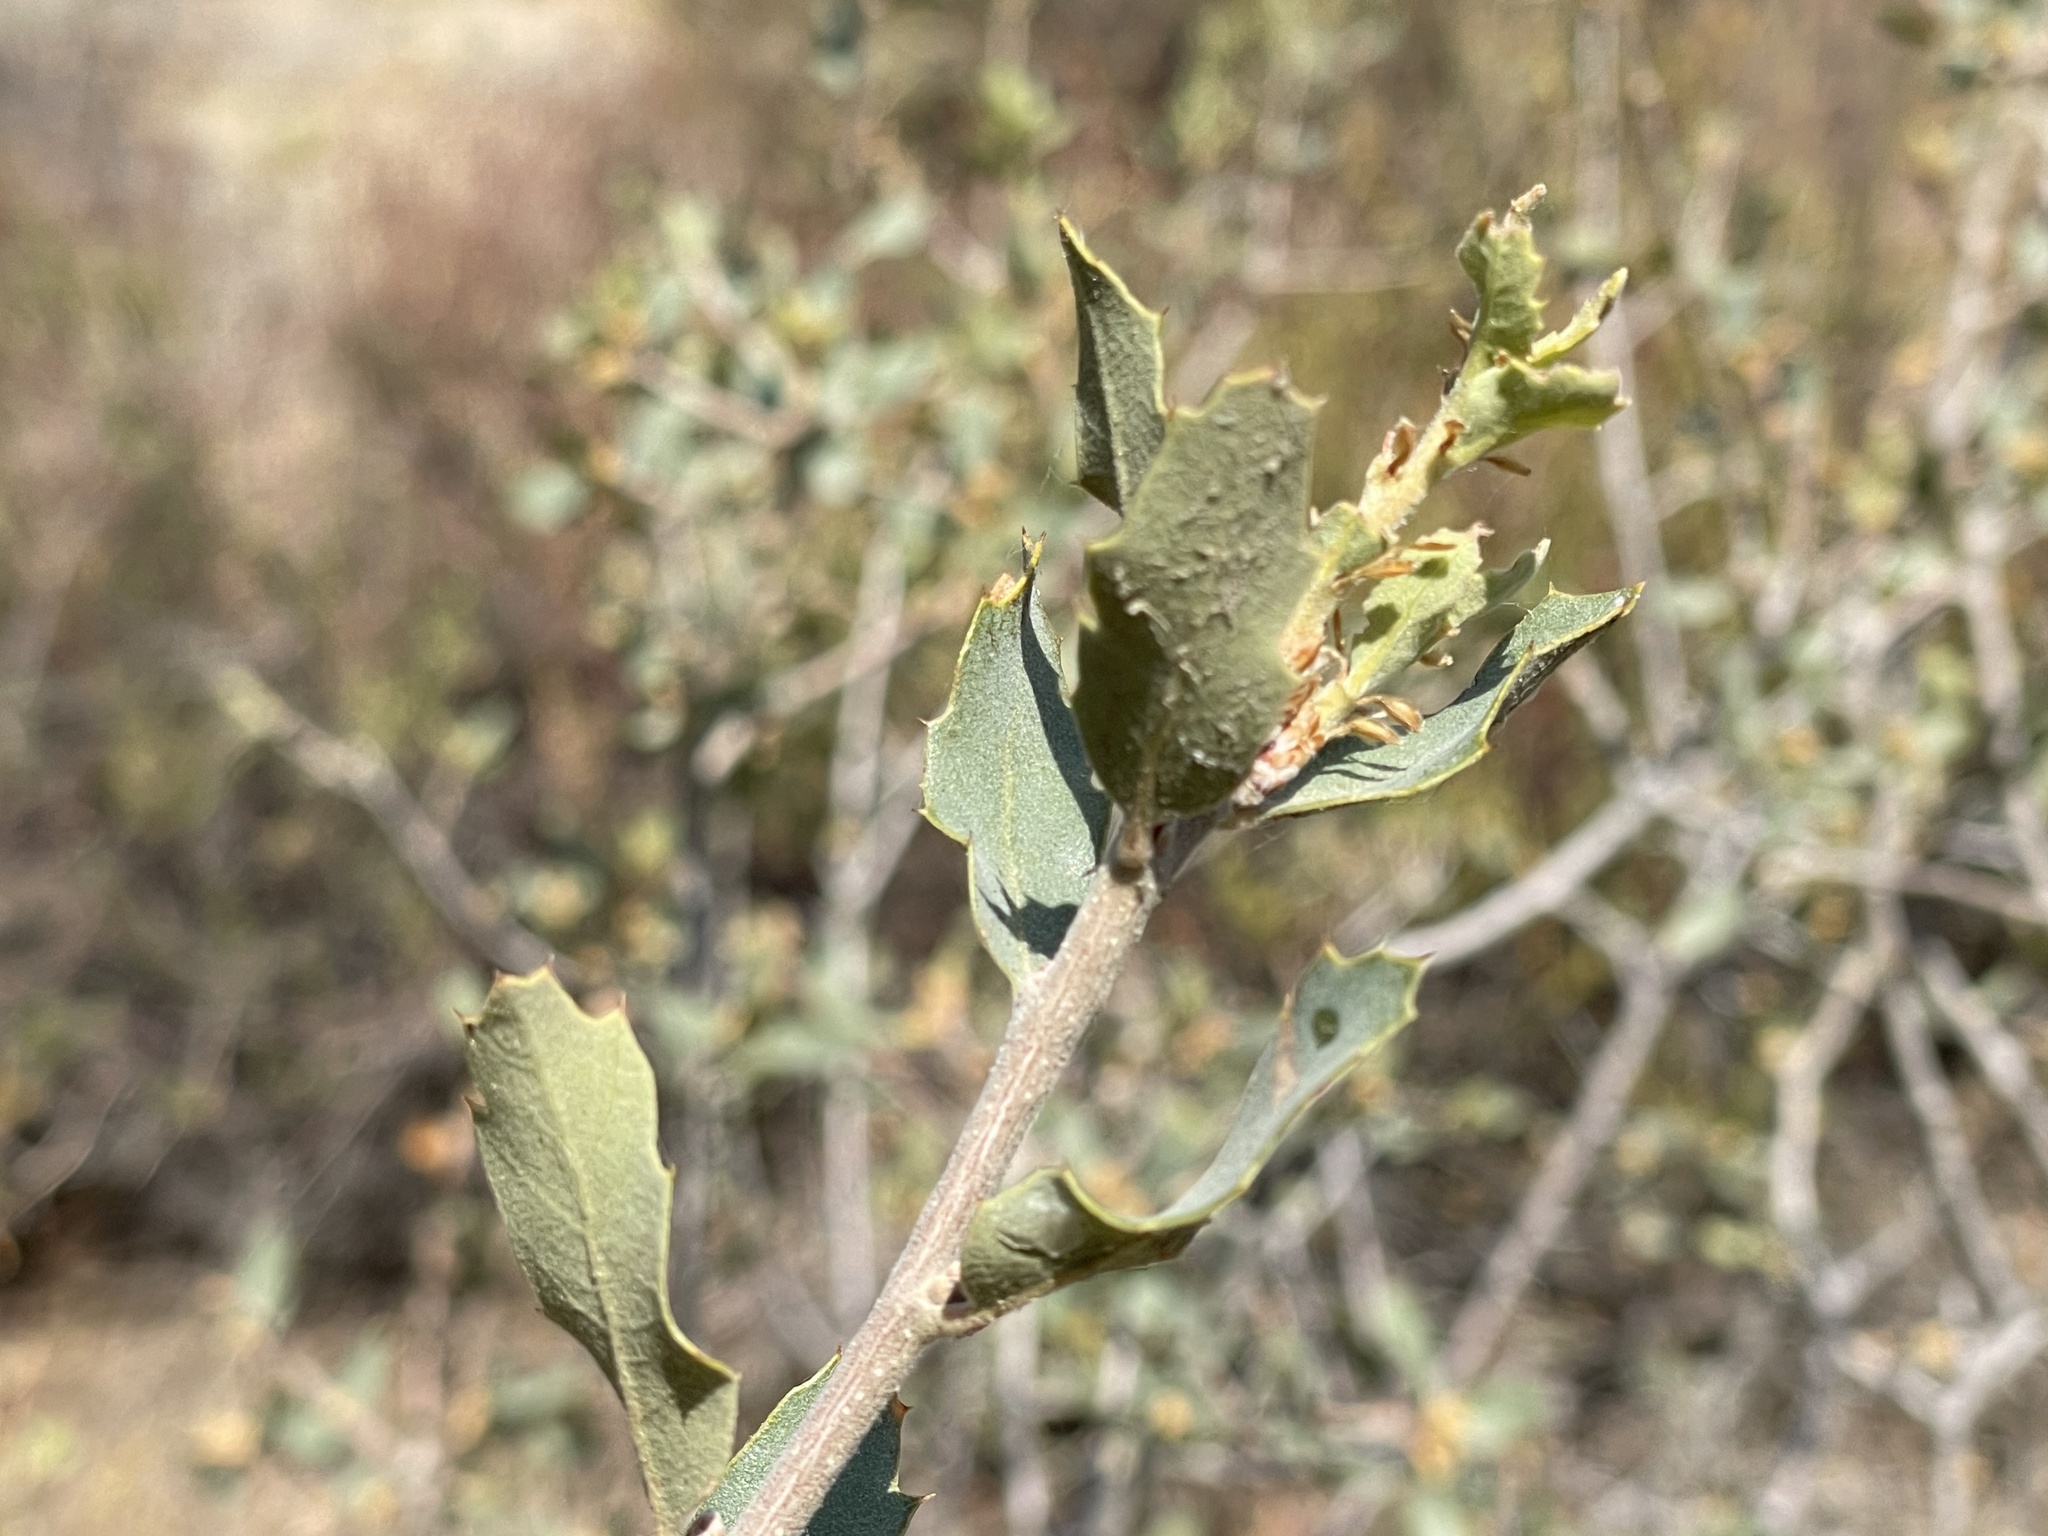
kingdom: Plantae
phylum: Tracheophyta
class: Magnoliopsida
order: Fagales
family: Fagaceae
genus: Quercus
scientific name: Quercus john-tuckeri
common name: Tucker's oak
